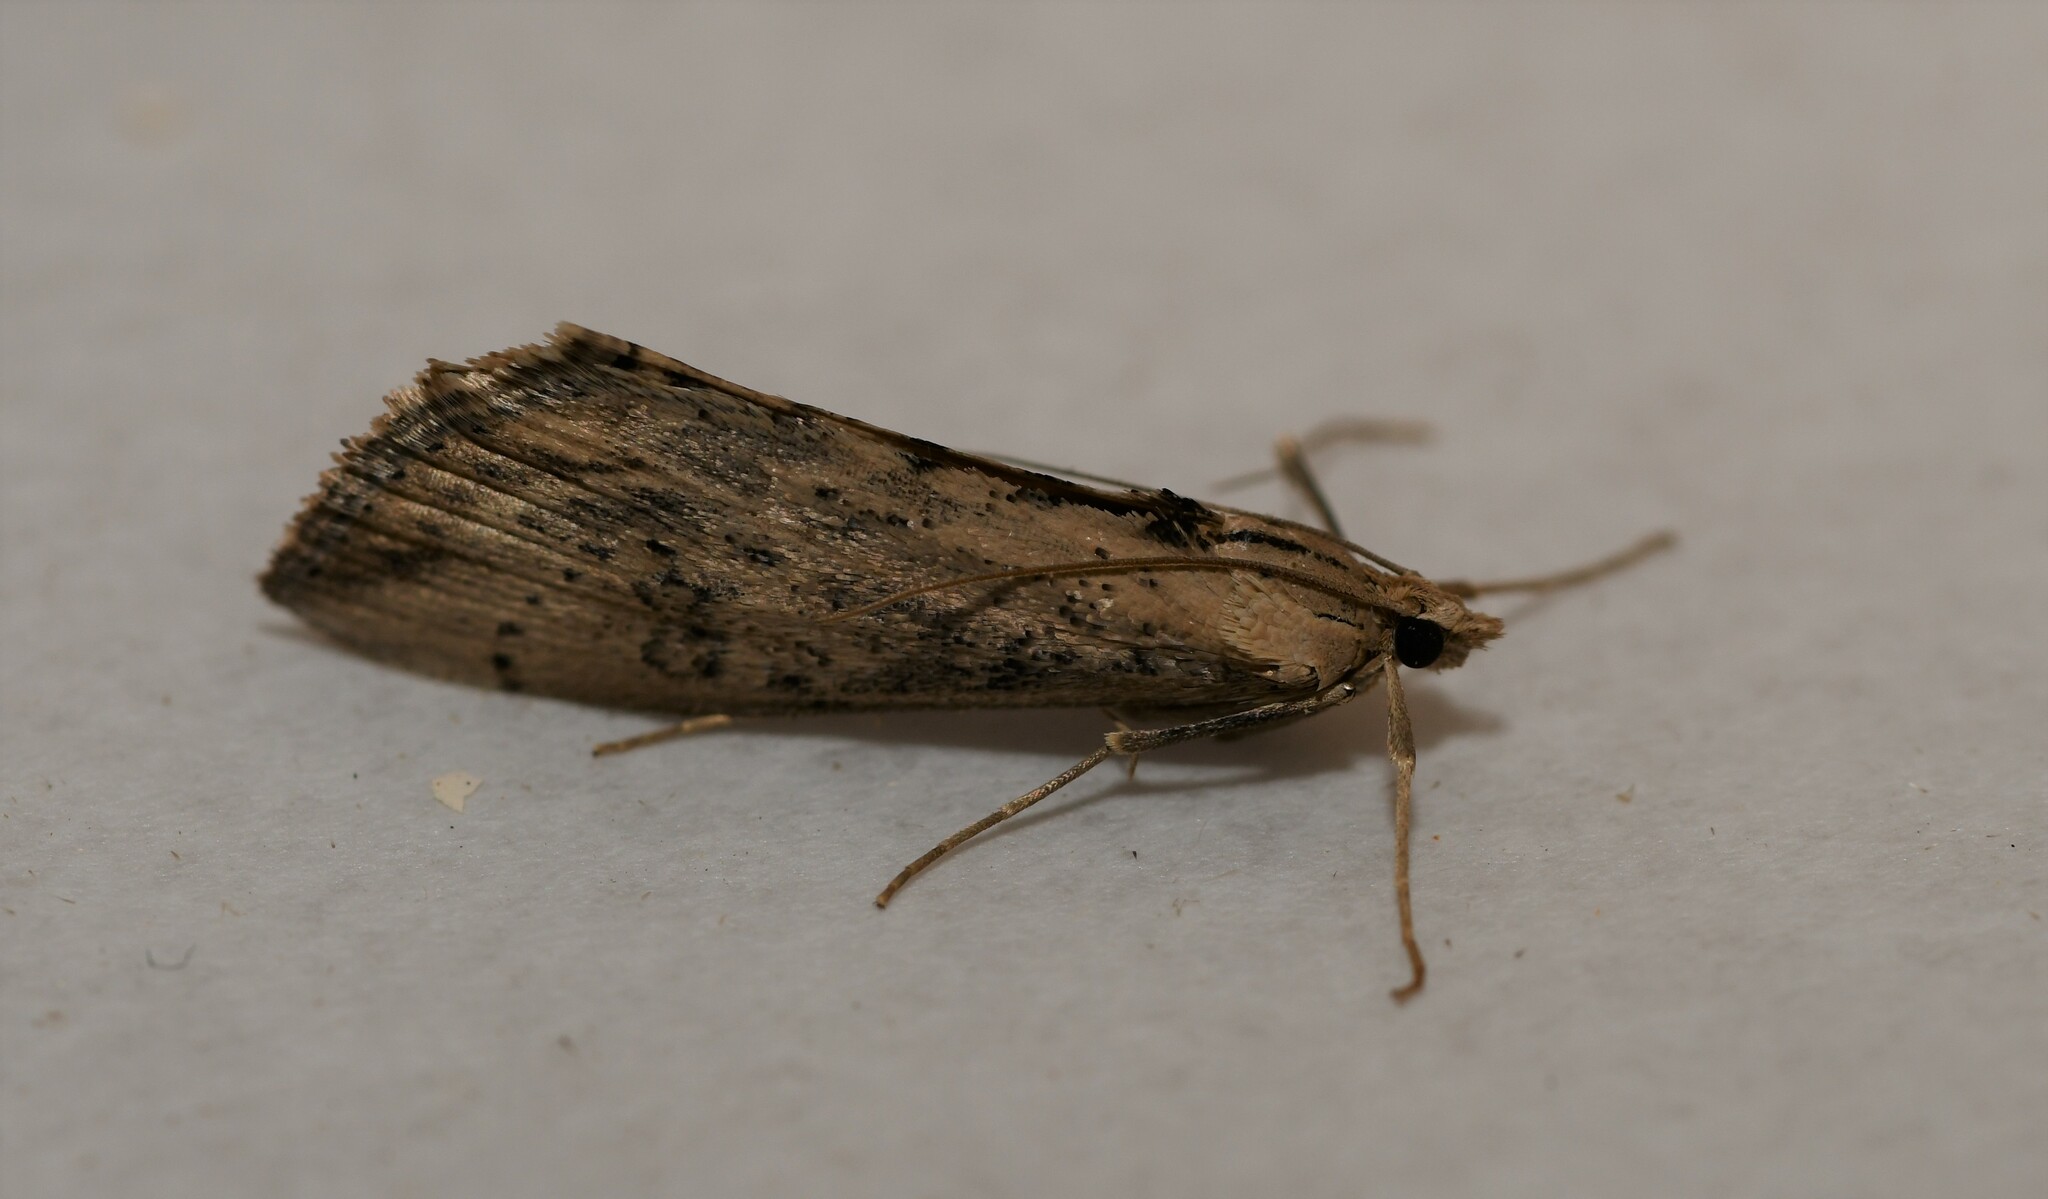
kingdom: Animalia
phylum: Arthropoda
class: Insecta
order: Lepidoptera
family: Crambidae
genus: Evergestis
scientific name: Evergestis isatidalis
